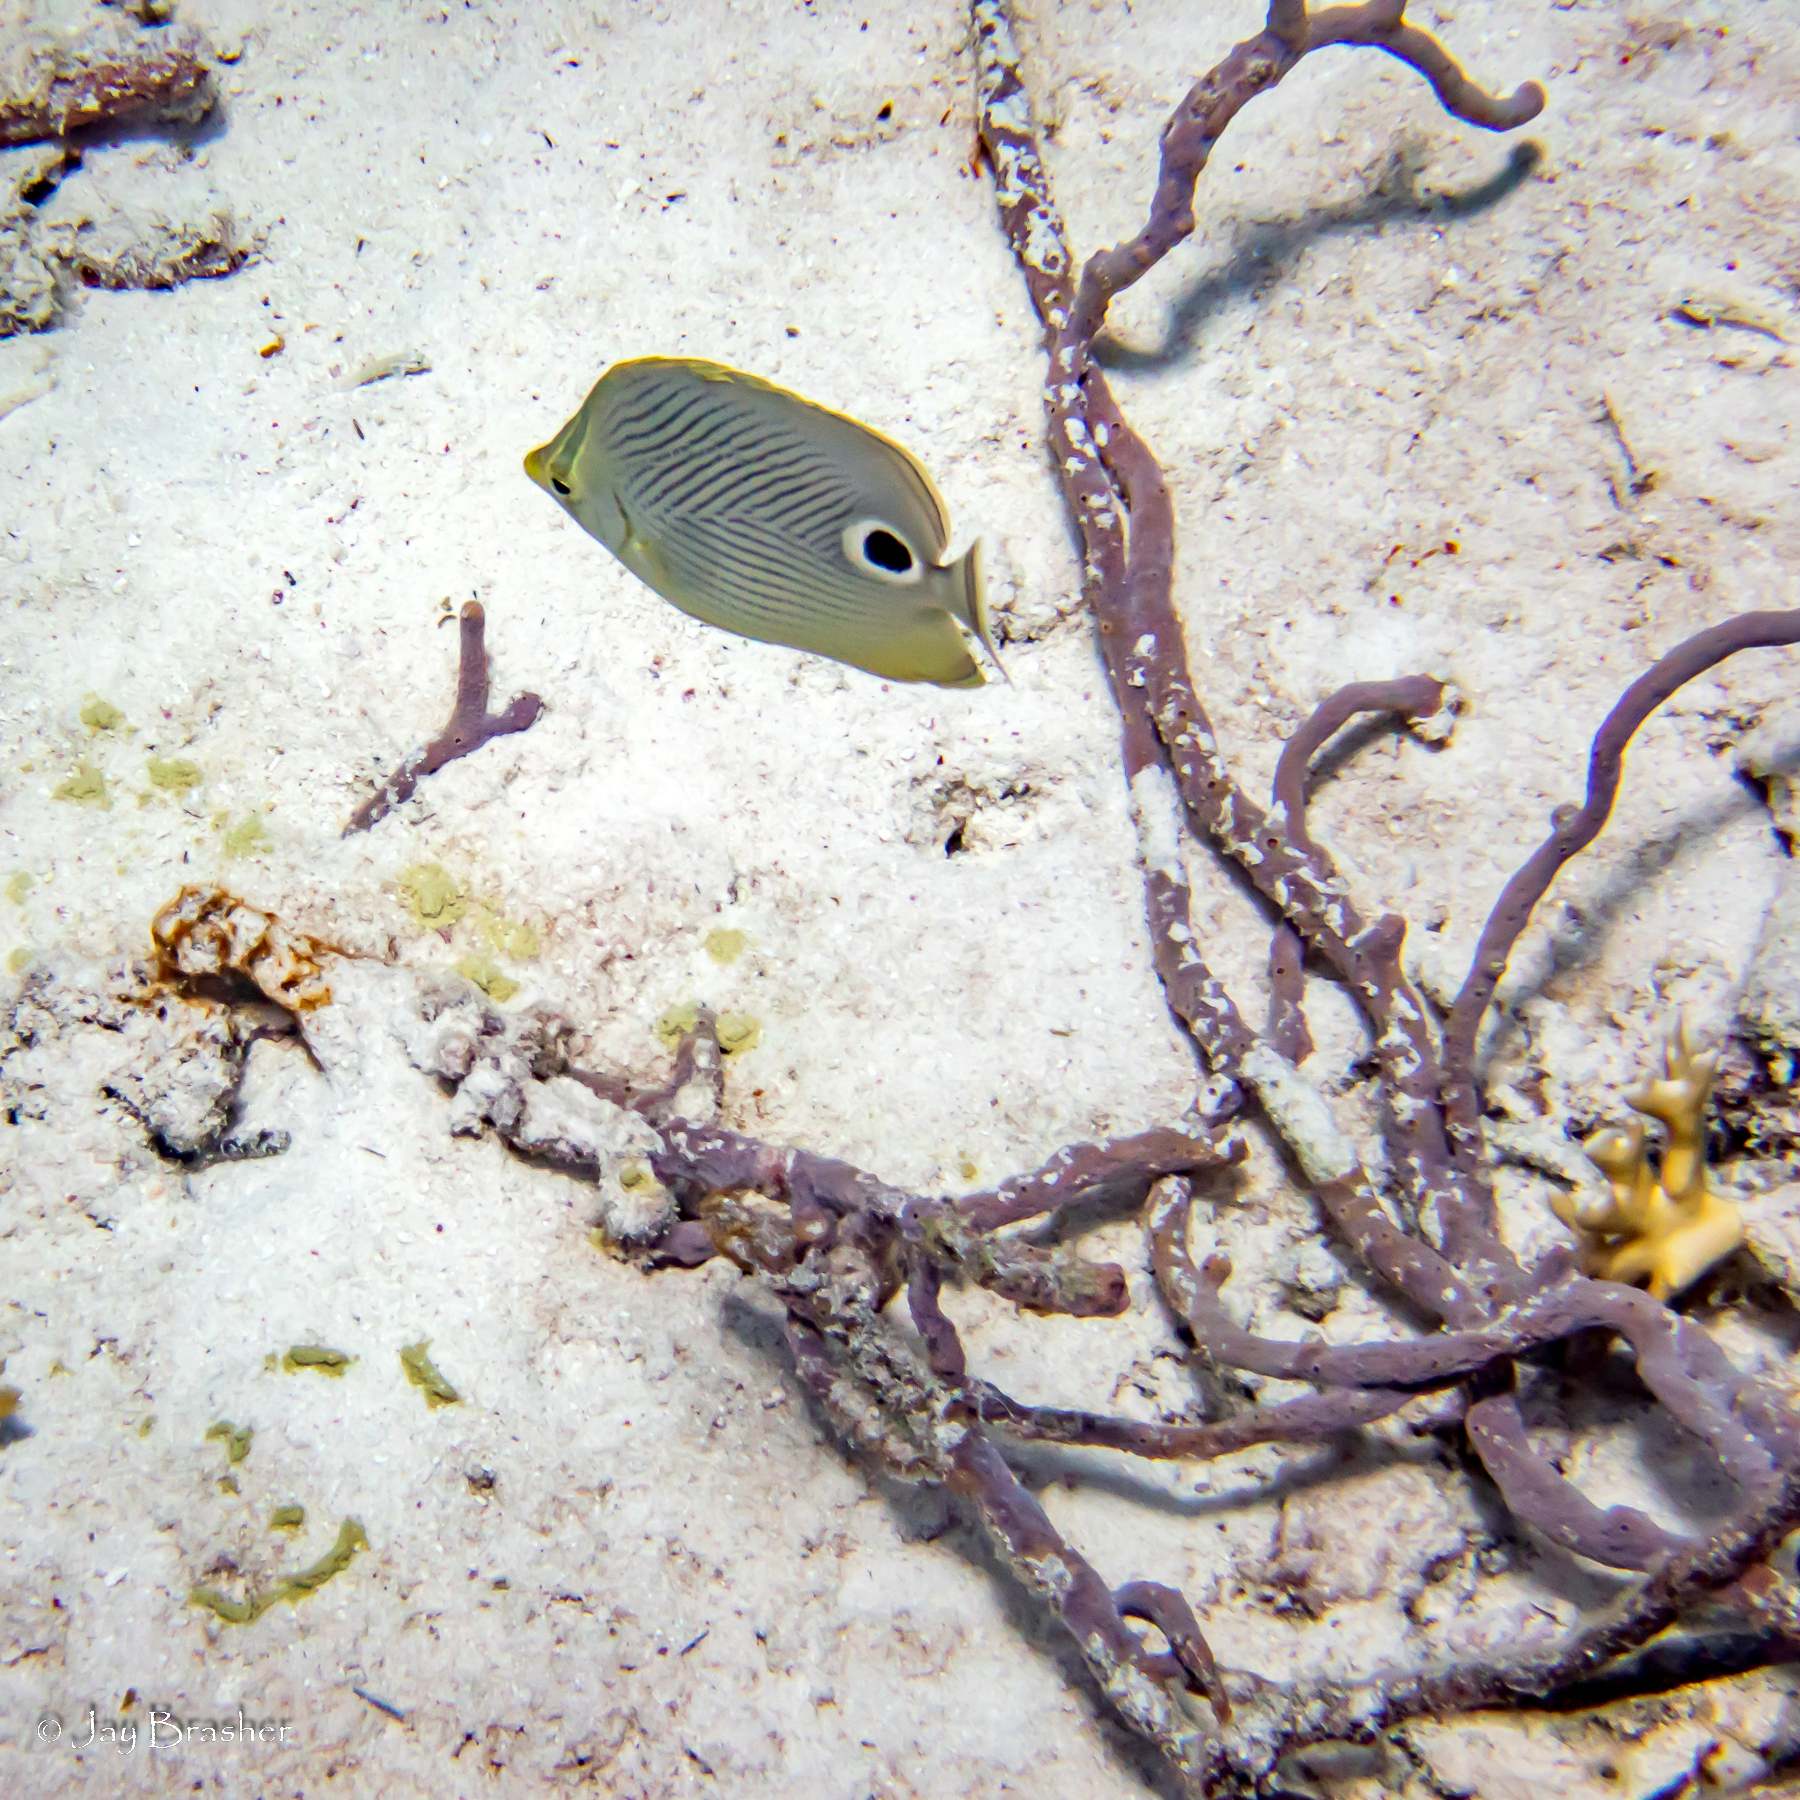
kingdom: Animalia
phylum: Porifera
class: Demospongiae
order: Verongiida
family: Aplysinidae
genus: Aplysina
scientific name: Aplysina cauliformis
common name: Branching candle sponge
